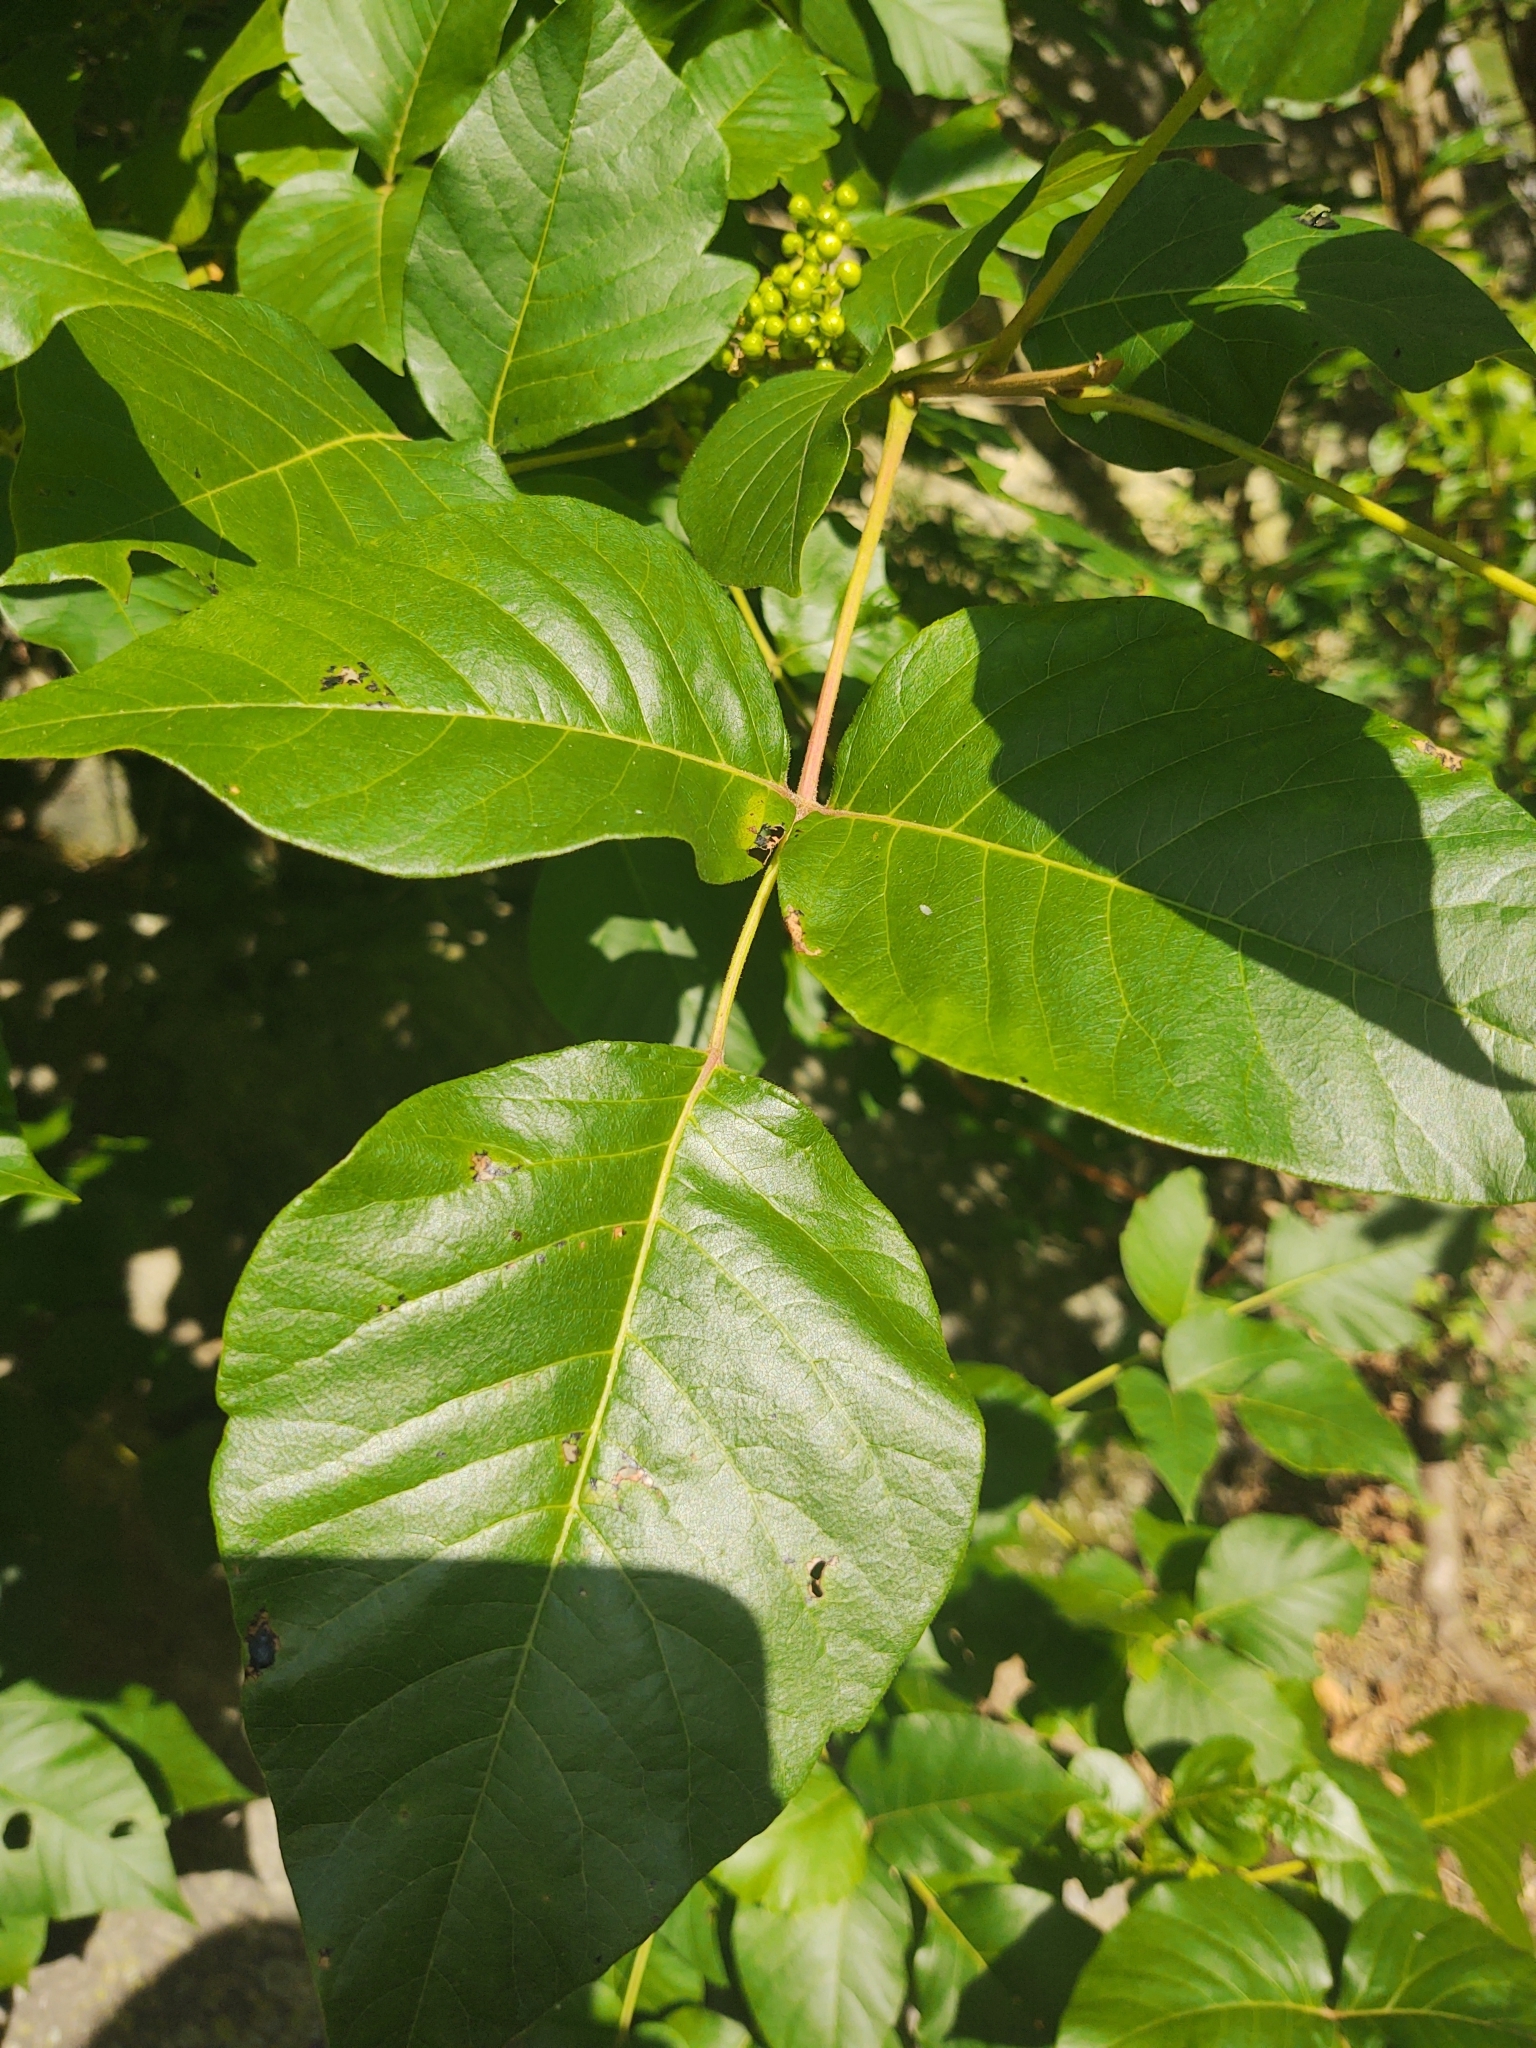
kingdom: Plantae
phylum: Tracheophyta
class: Magnoliopsida
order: Sapindales
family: Anacardiaceae
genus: Toxicodendron
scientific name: Toxicodendron radicans
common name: Poison ivy
